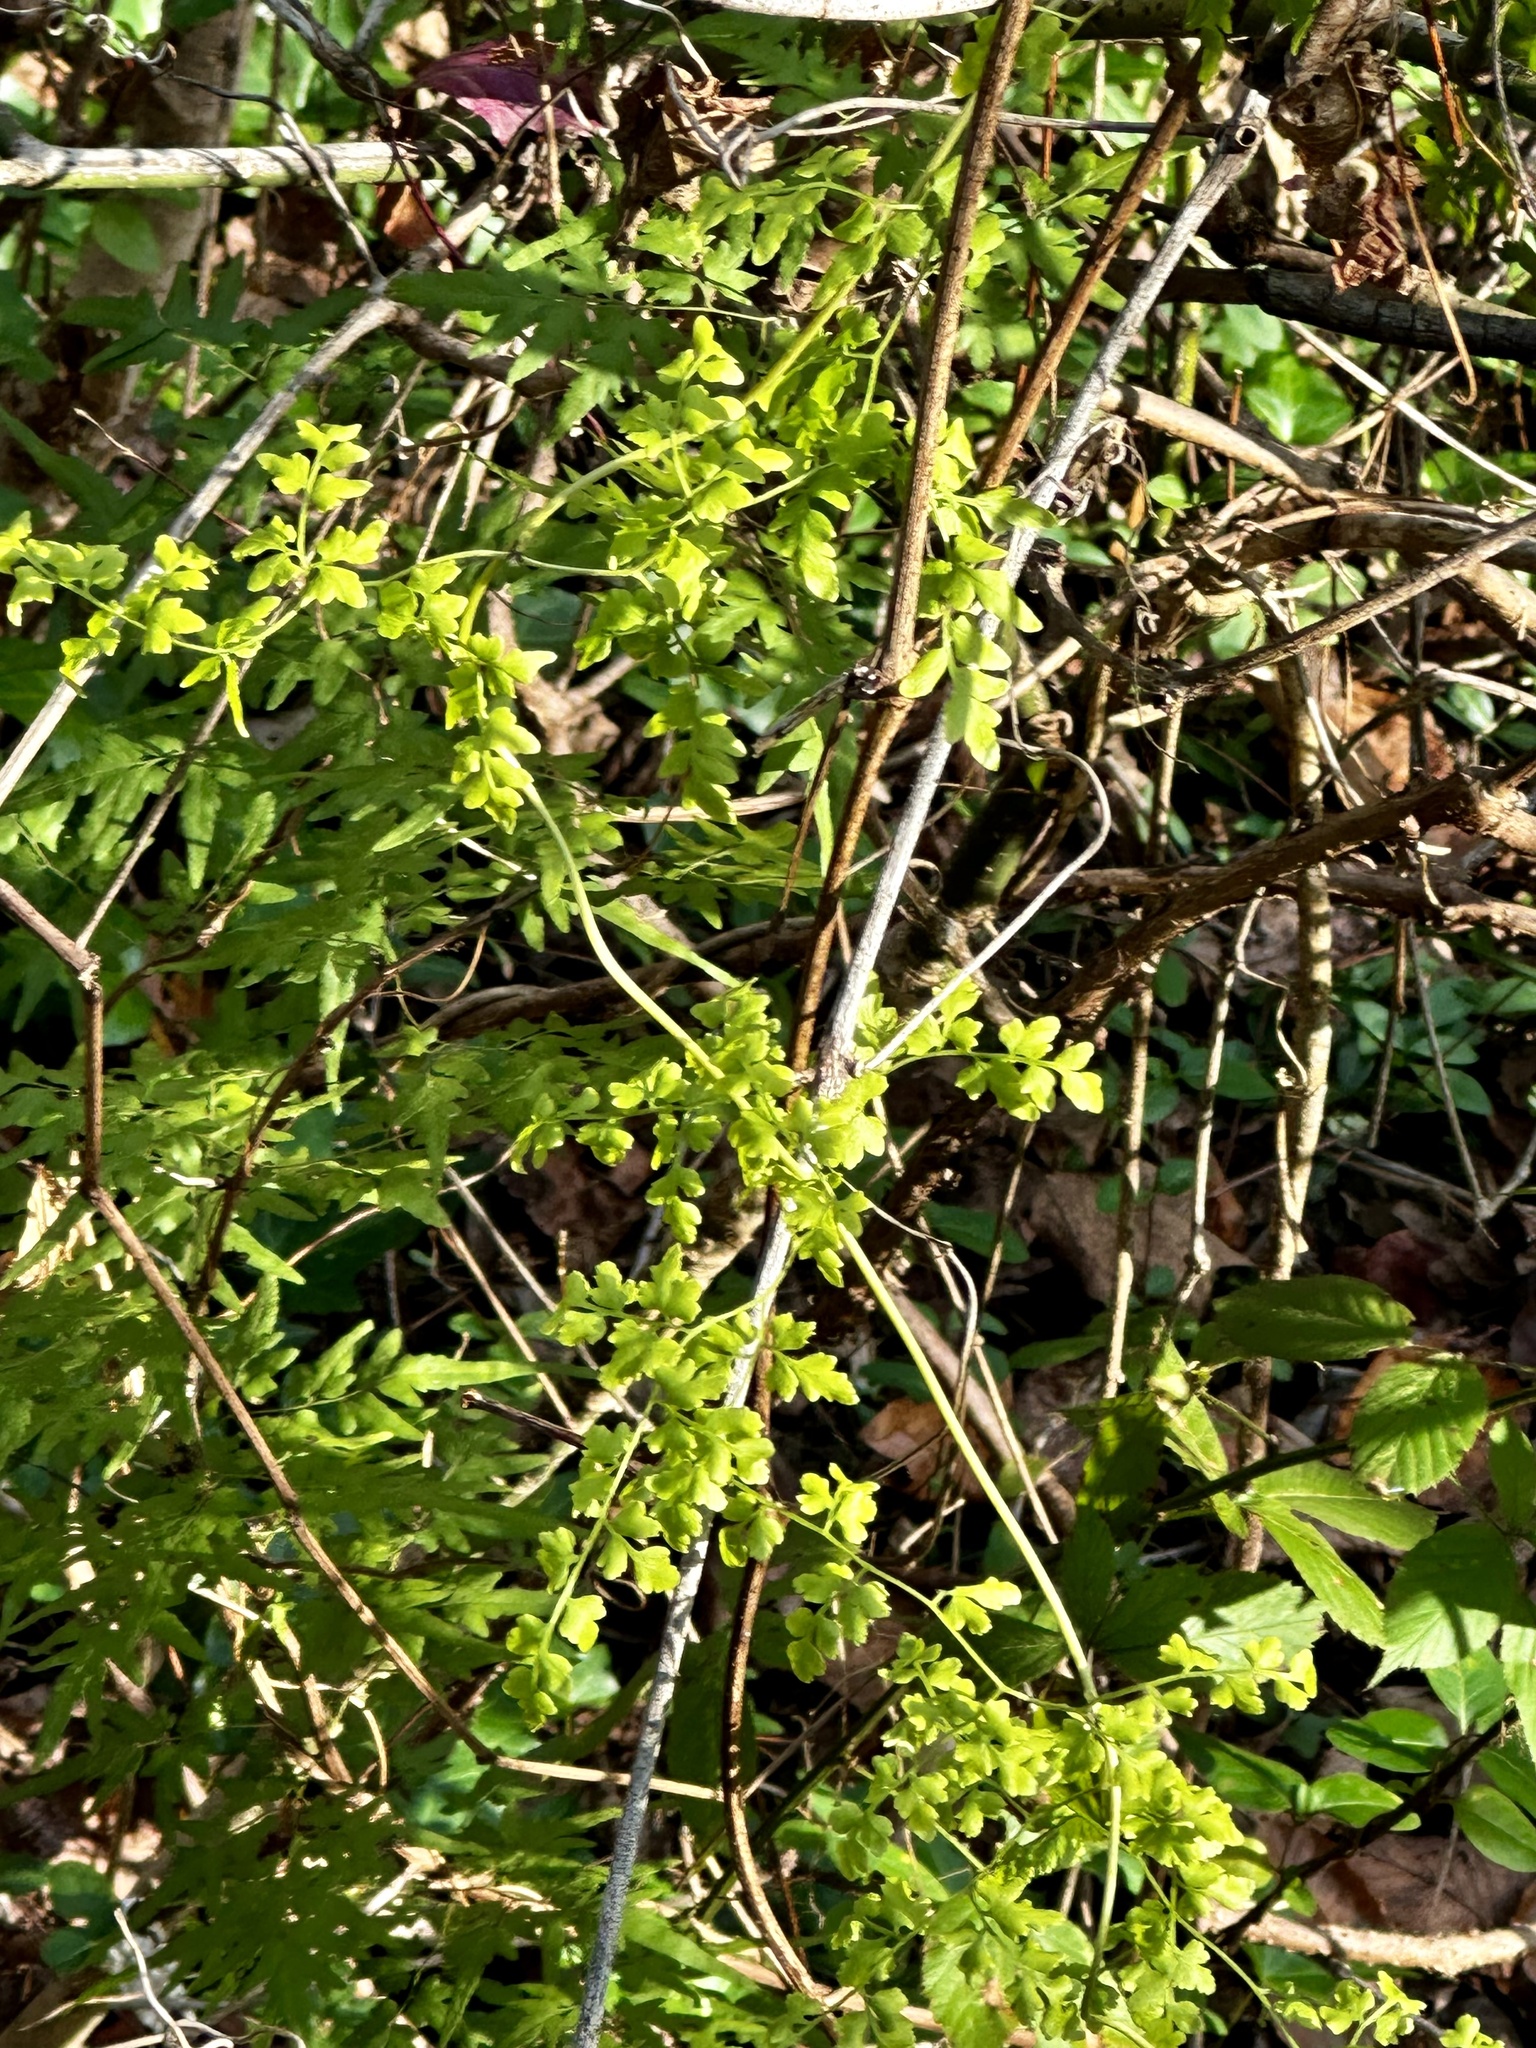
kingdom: Plantae
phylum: Tracheophyta
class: Polypodiopsida
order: Schizaeales
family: Lygodiaceae
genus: Lygodium
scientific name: Lygodium japonicum
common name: Japanese climbing fern
